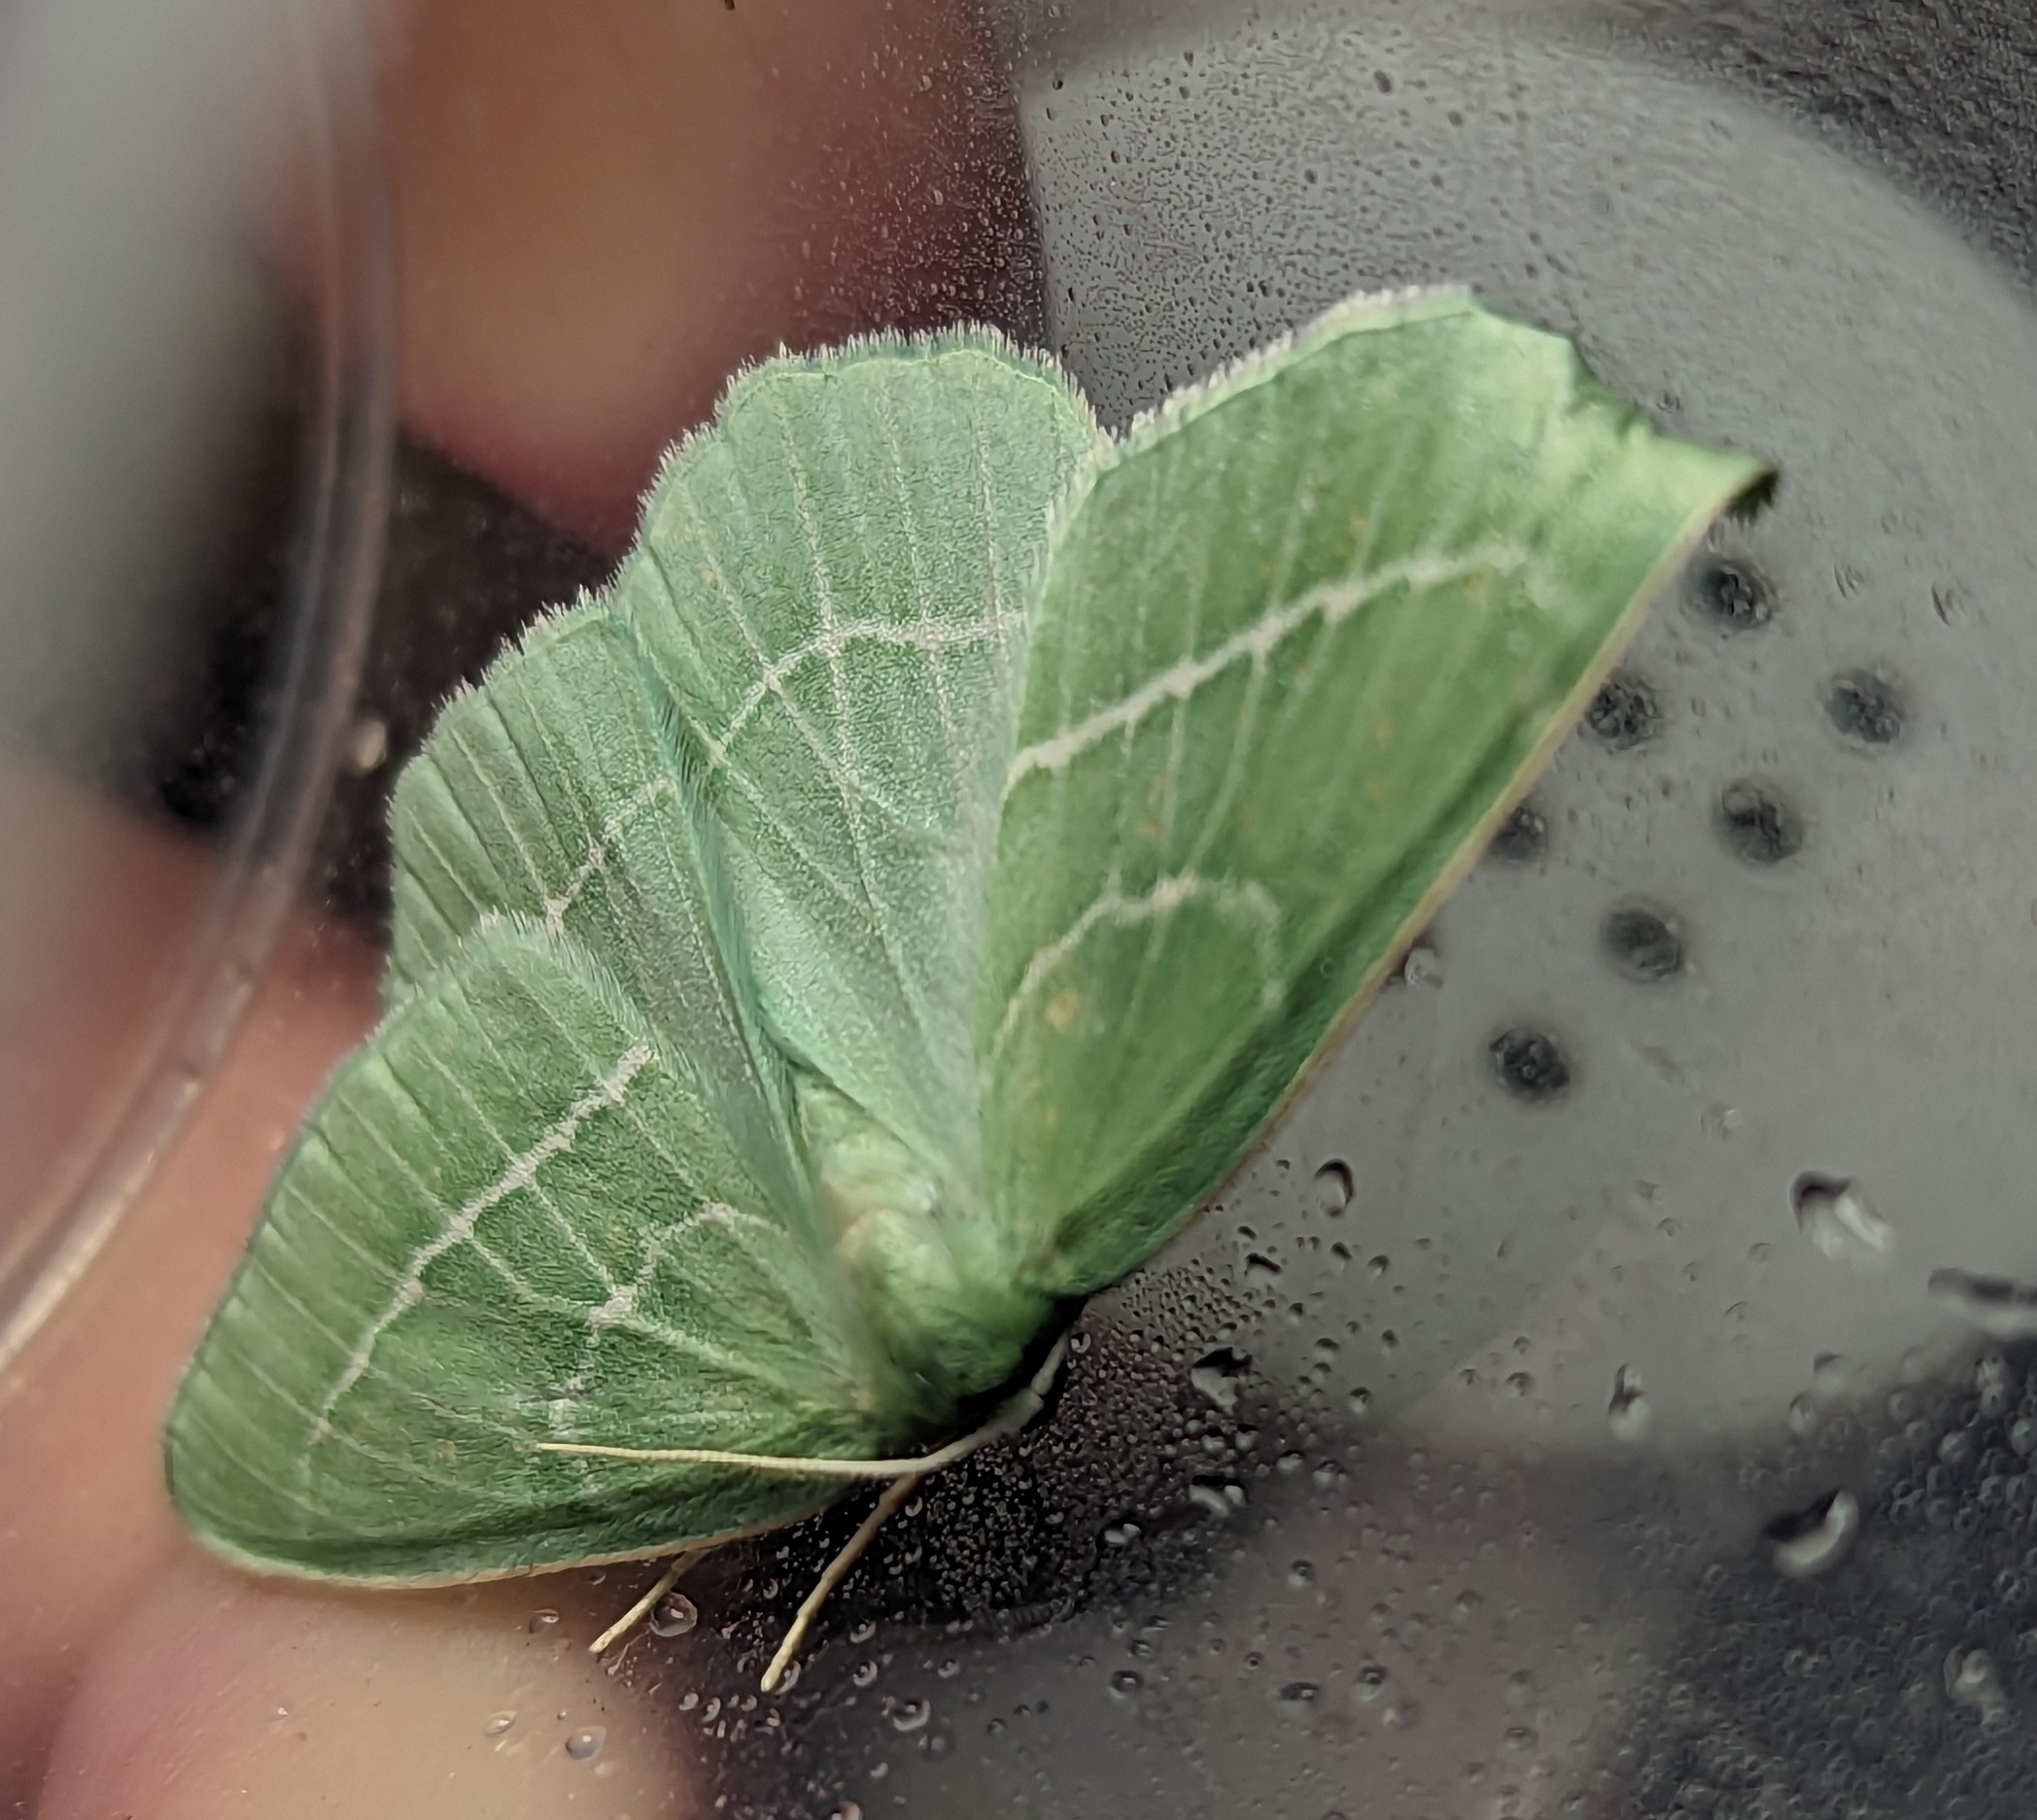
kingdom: Animalia
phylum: Arthropoda
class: Insecta
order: Lepidoptera
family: Geometridae
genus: Hemistola
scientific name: Hemistola chrysoprasaria
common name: Small emerald
